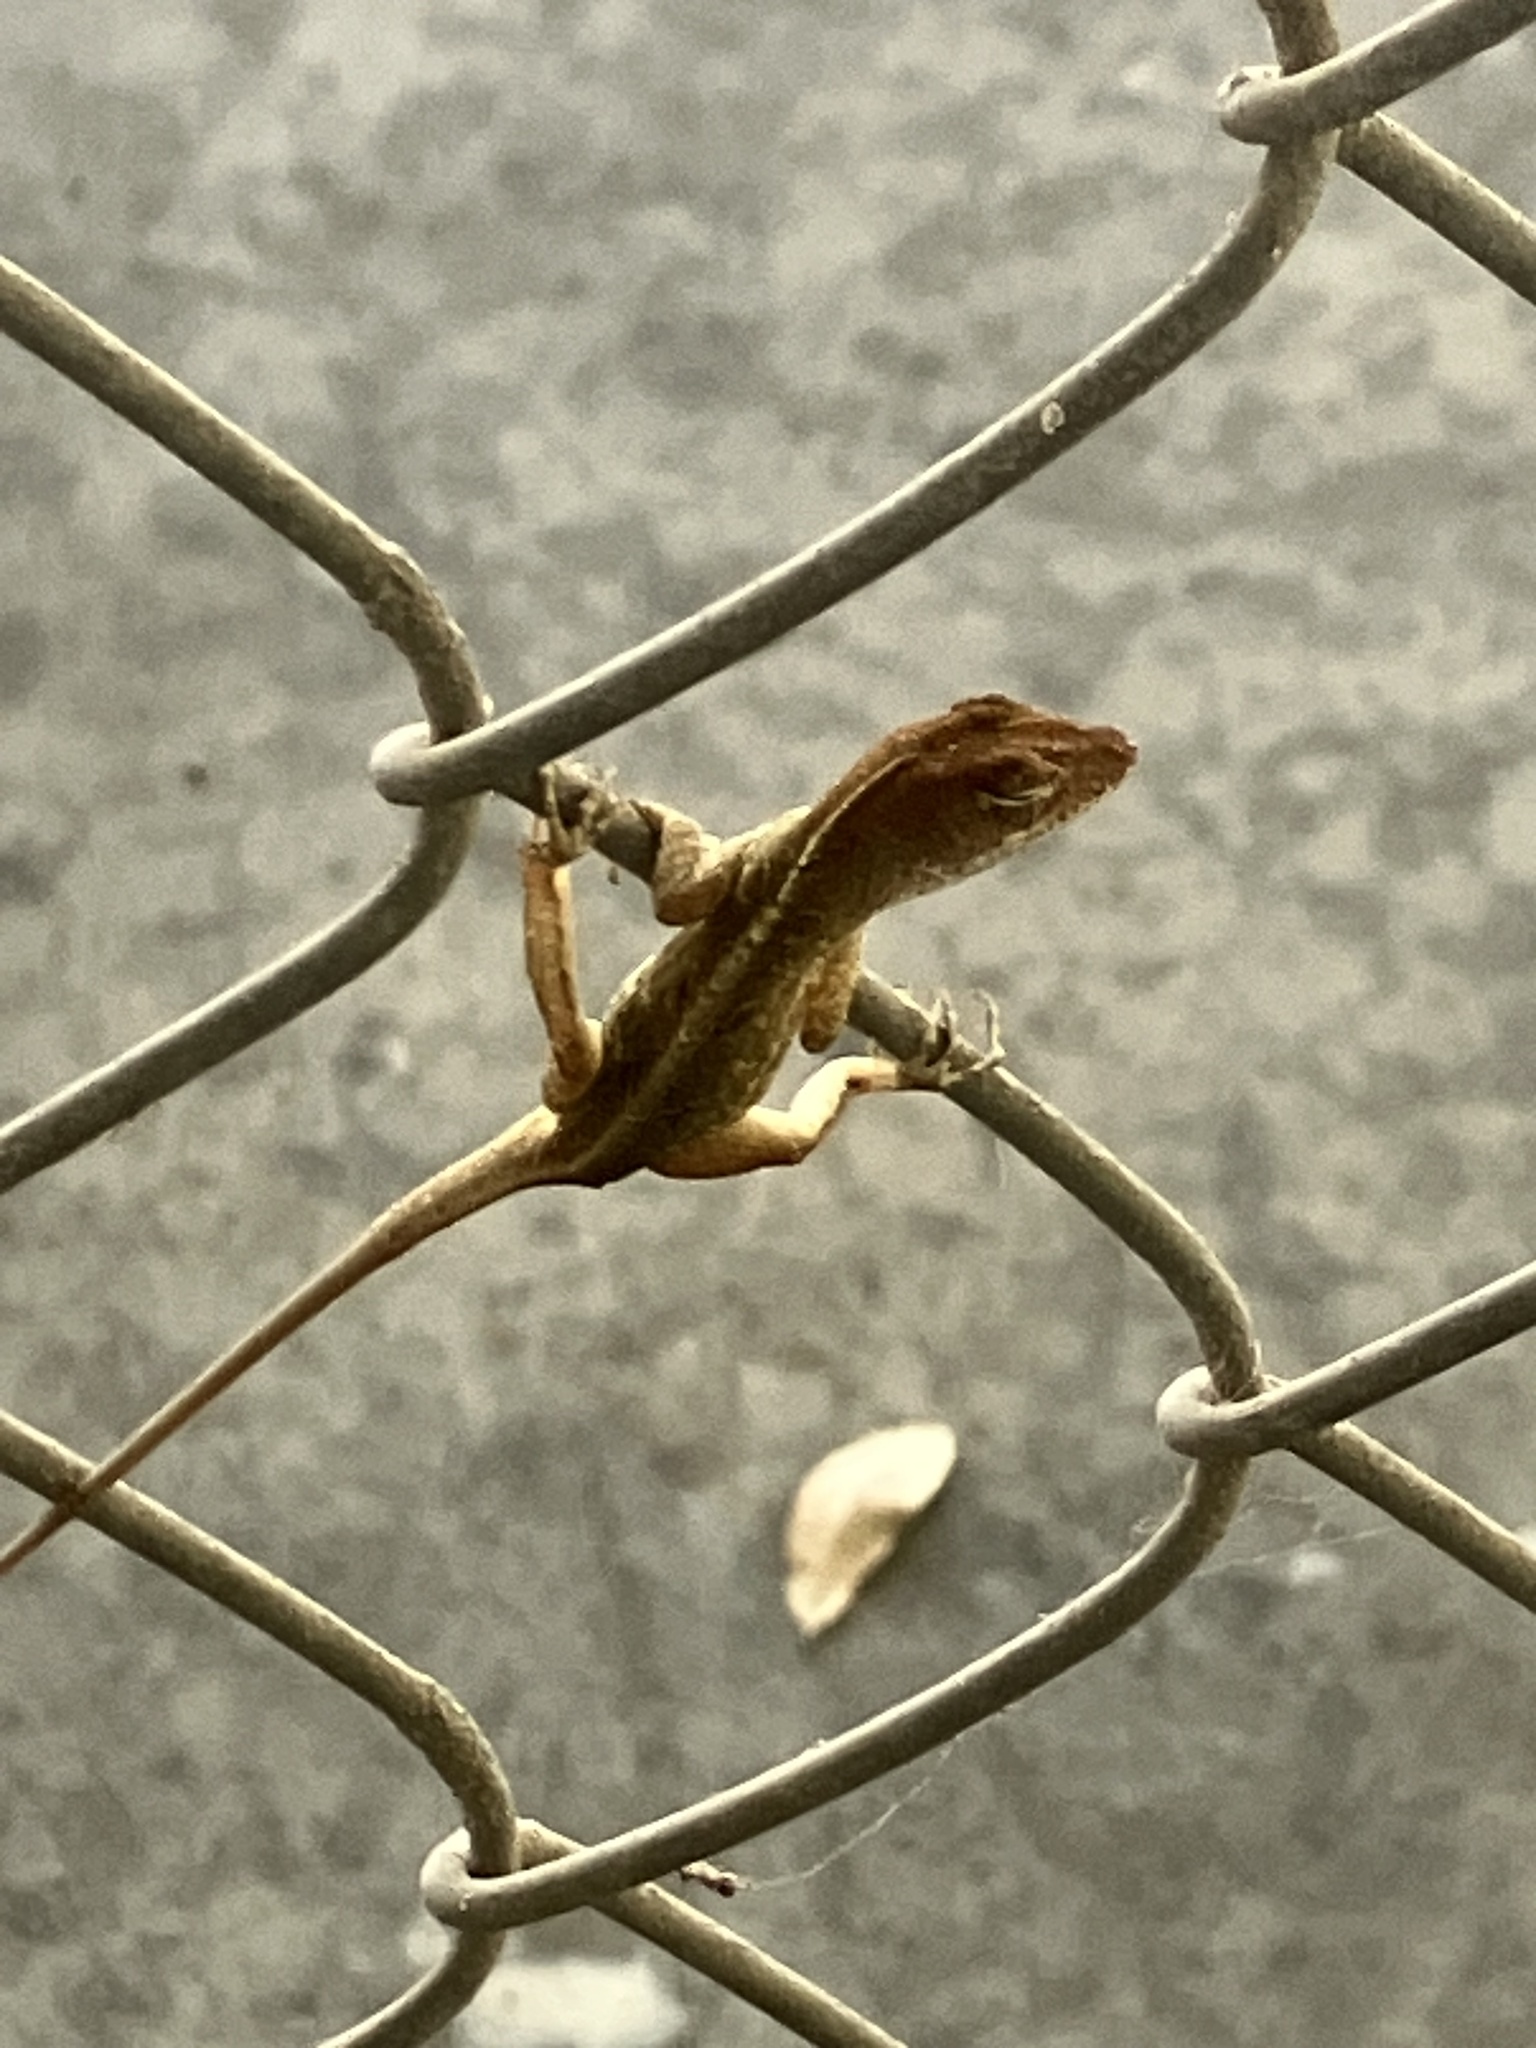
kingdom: Animalia
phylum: Chordata
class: Squamata
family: Dactyloidae
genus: Anolis
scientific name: Anolis sagrei
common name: Brown anole
